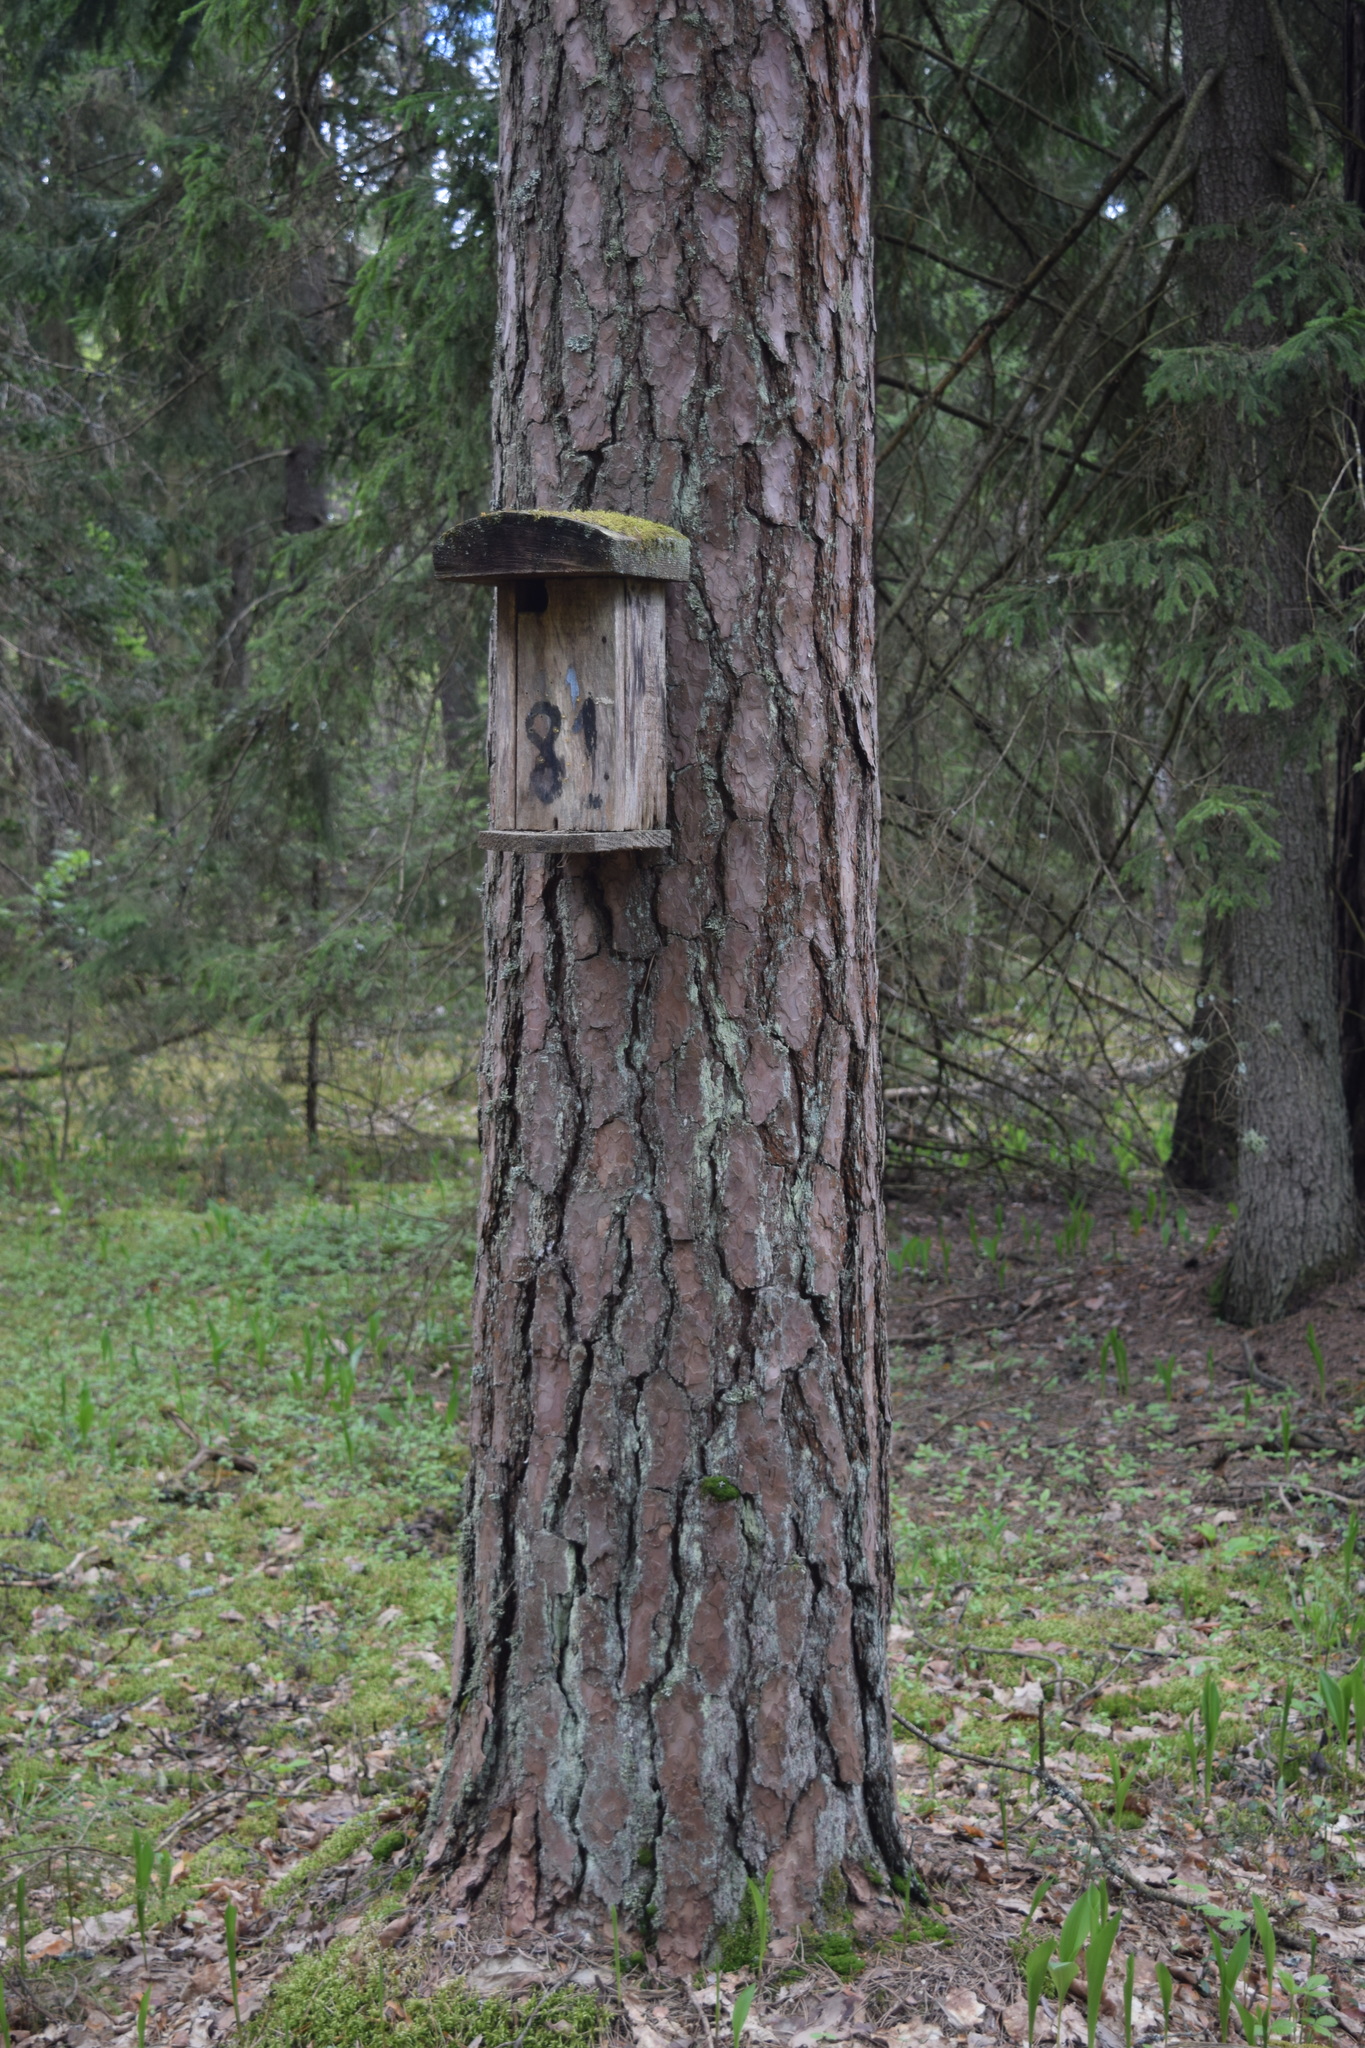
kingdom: Plantae
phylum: Tracheophyta
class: Pinopsida
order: Pinales
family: Pinaceae
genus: Pinus
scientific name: Pinus sylvestris
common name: Scots pine
